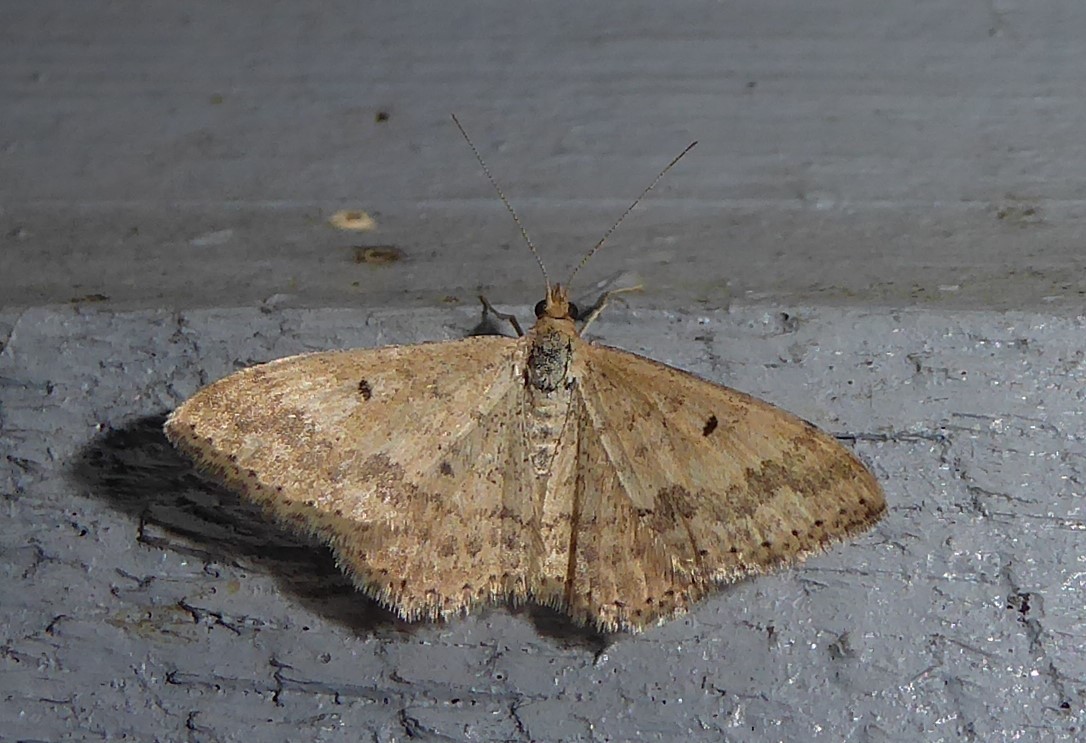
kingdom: Animalia
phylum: Arthropoda
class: Insecta
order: Lepidoptera
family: Geometridae
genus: Scopula
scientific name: Scopula rubraria
